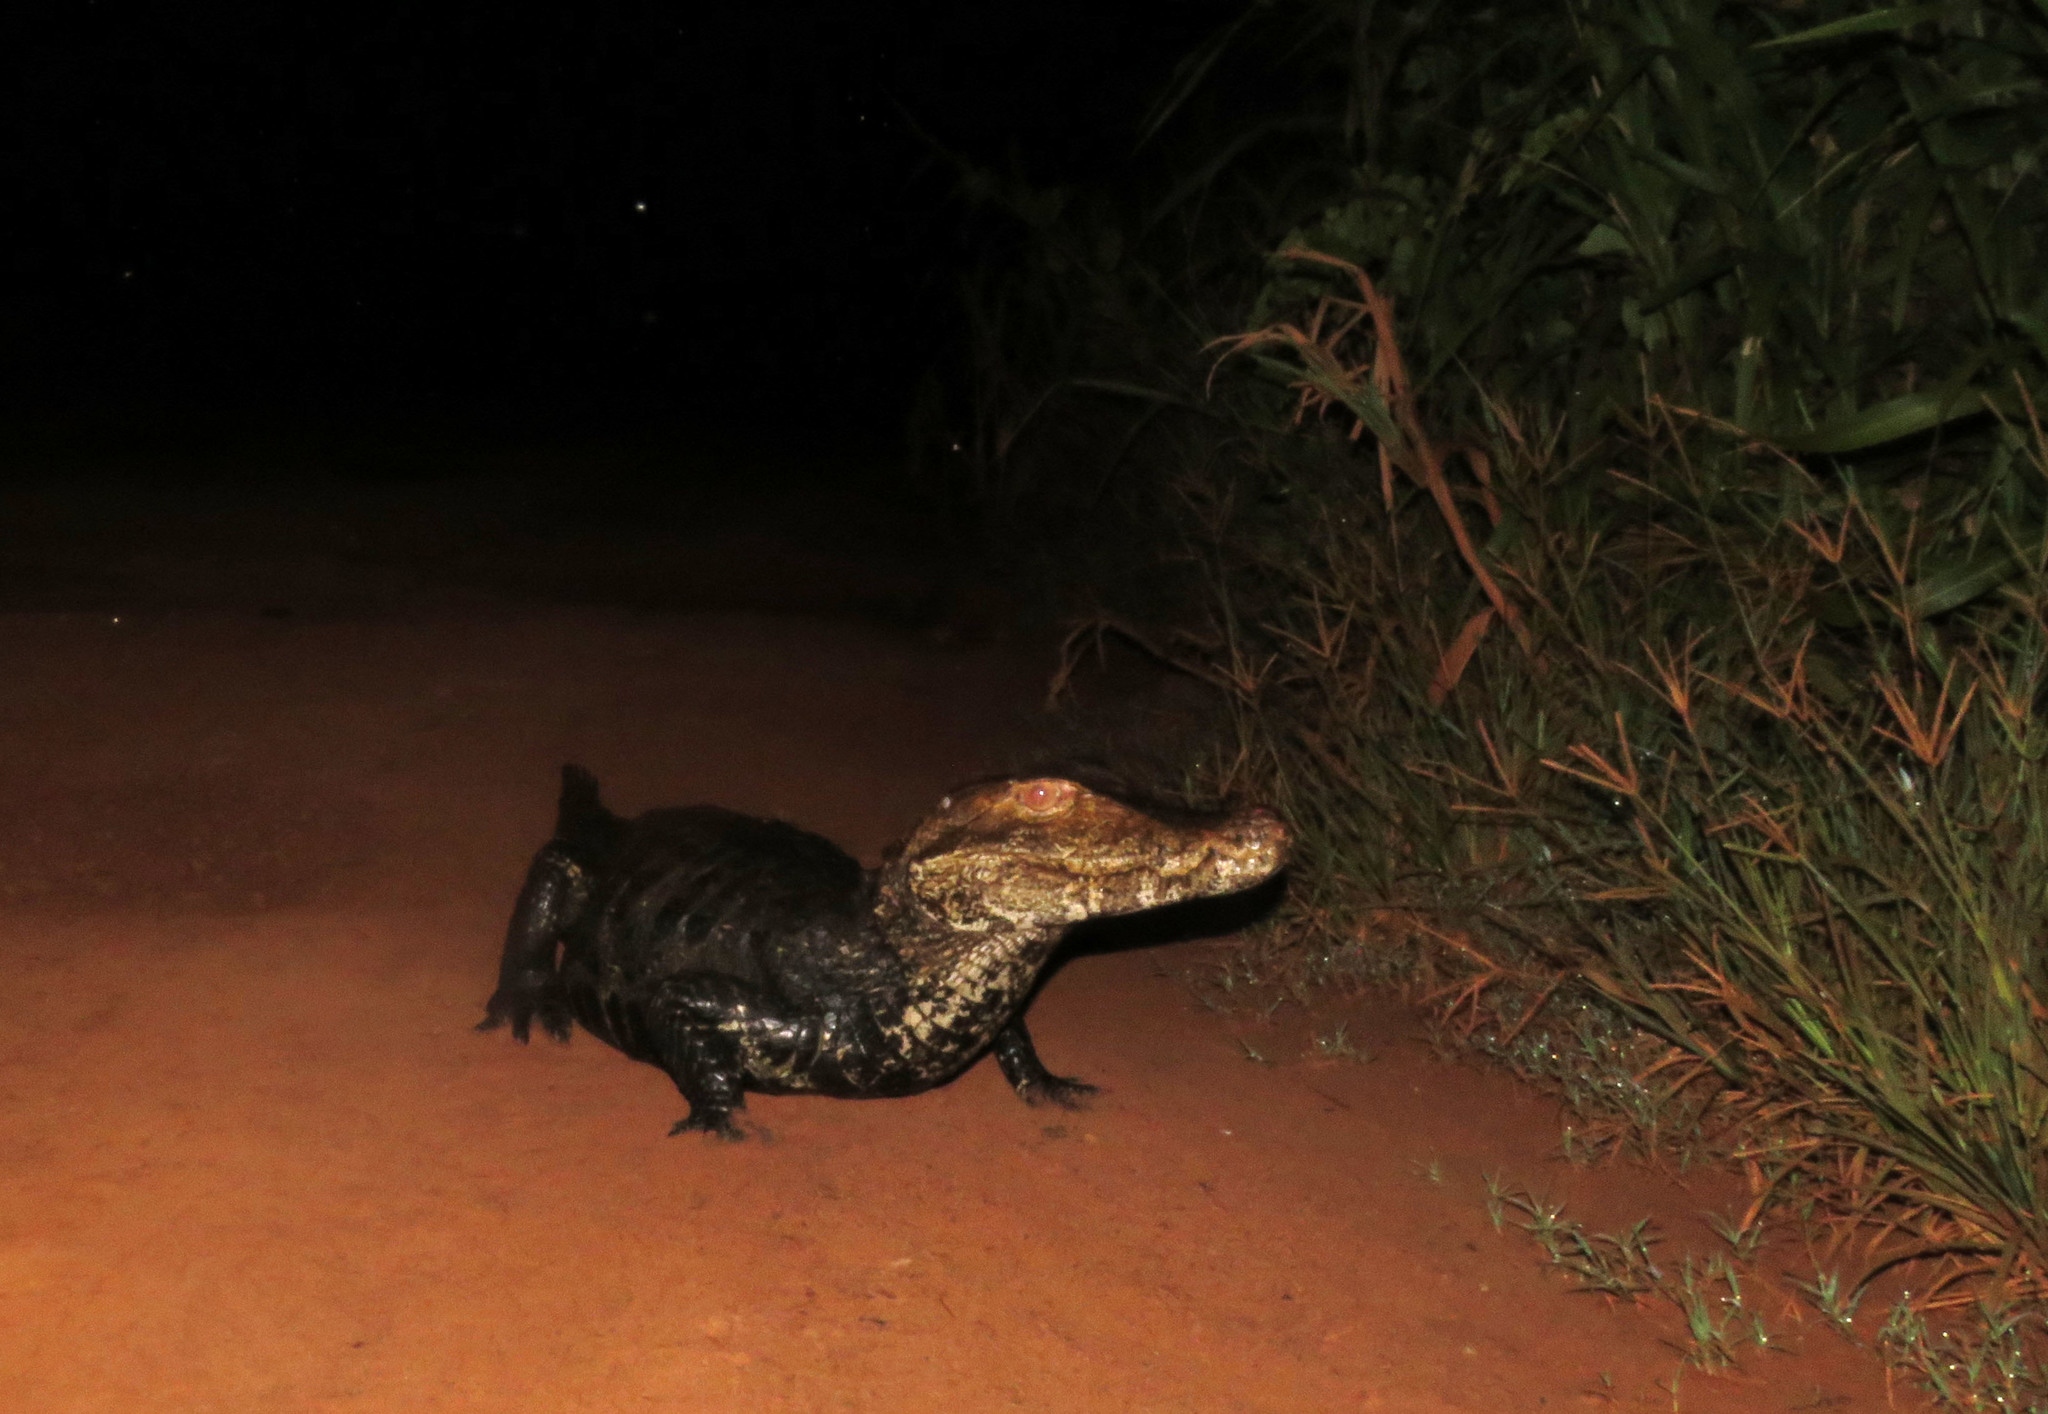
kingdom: Animalia
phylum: Chordata
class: Crocodylia
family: Alligatoridae
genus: Paleosuchus
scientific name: Paleosuchus palpebrosus
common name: Cuvier's smooth-fronted caiman
